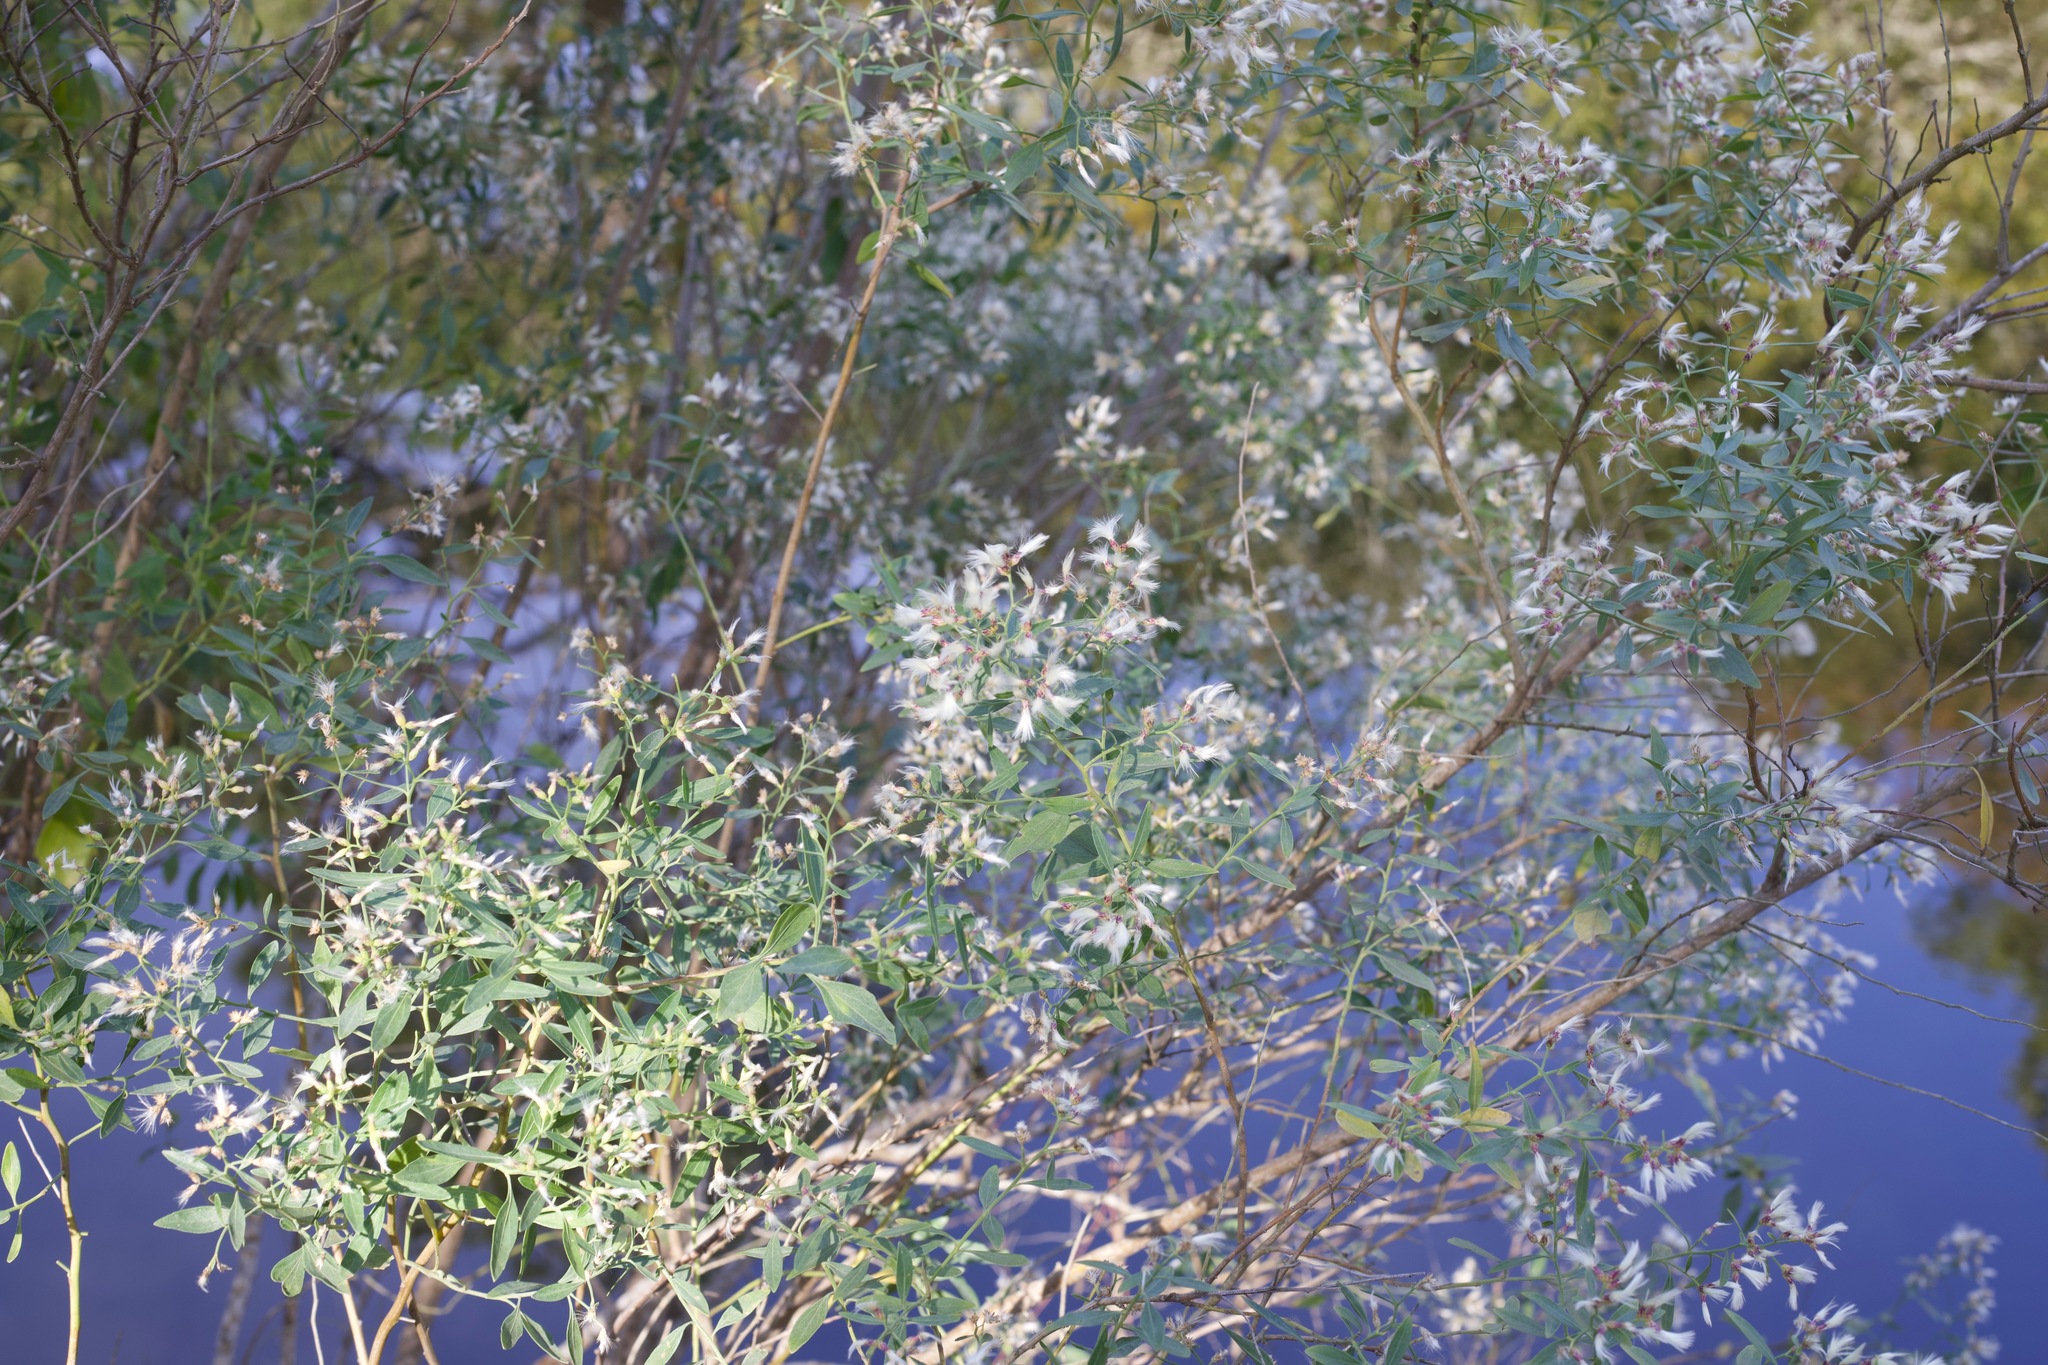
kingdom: Plantae
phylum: Tracheophyta
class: Magnoliopsida
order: Asterales
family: Asteraceae
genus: Baccharis
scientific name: Baccharis halimifolia
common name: Eastern baccharis
